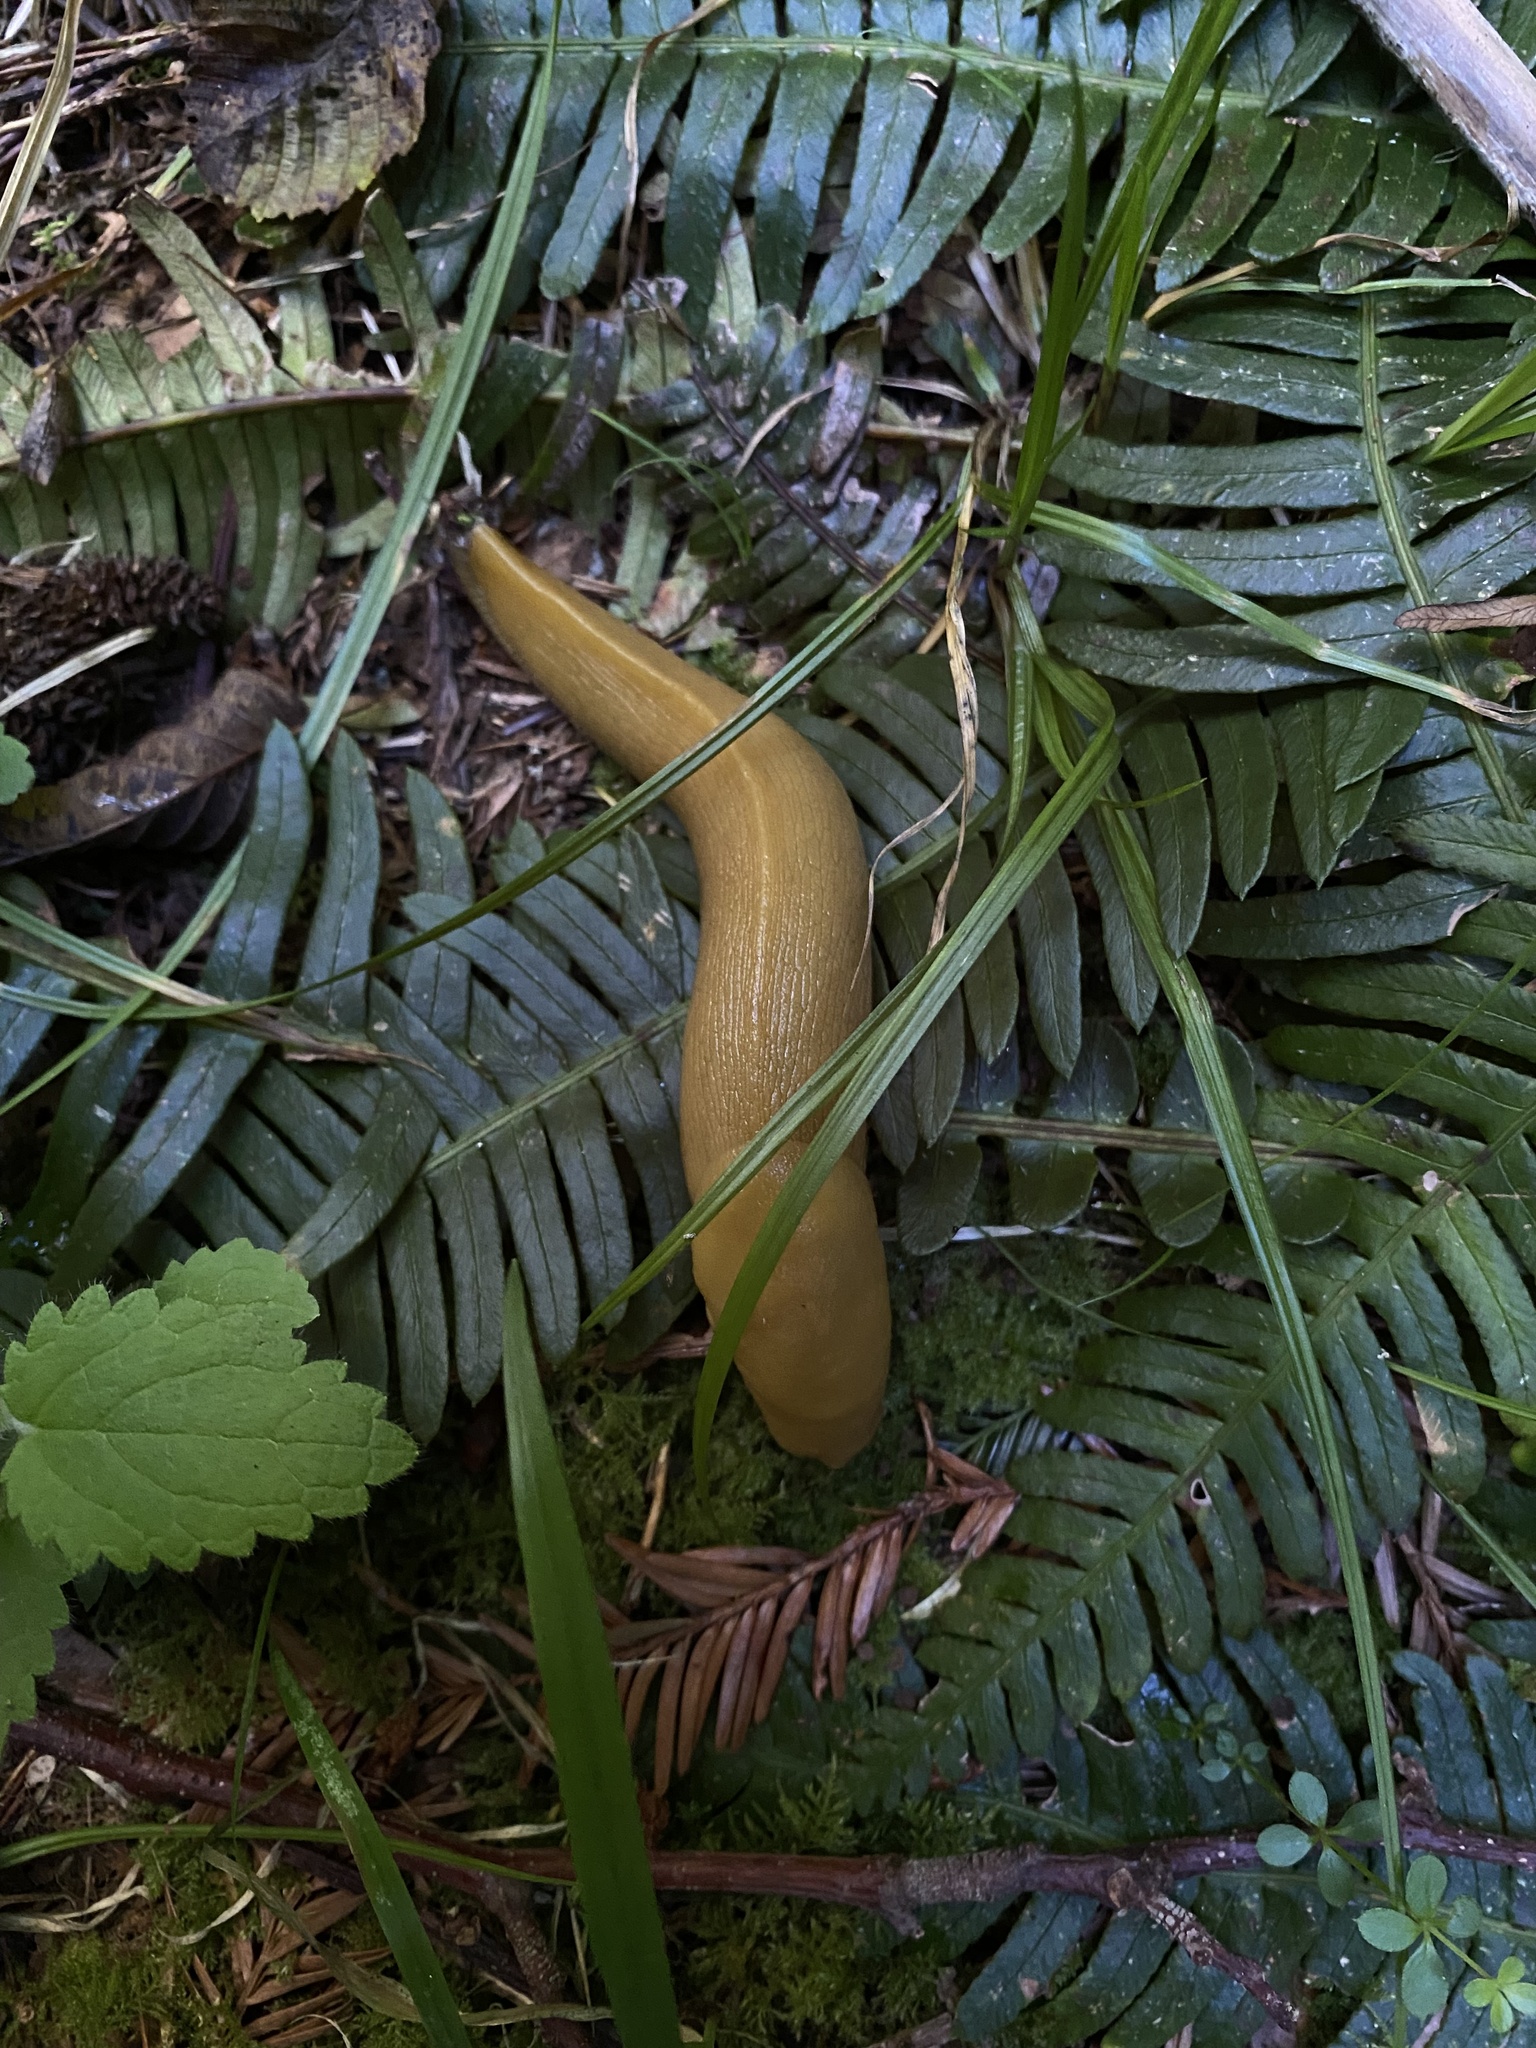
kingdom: Animalia
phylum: Mollusca
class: Gastropoda
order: Stylommatophora
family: Ariolimacidae
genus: Ariolimax
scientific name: Ariolimax columbianus
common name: Pacific banana slug
